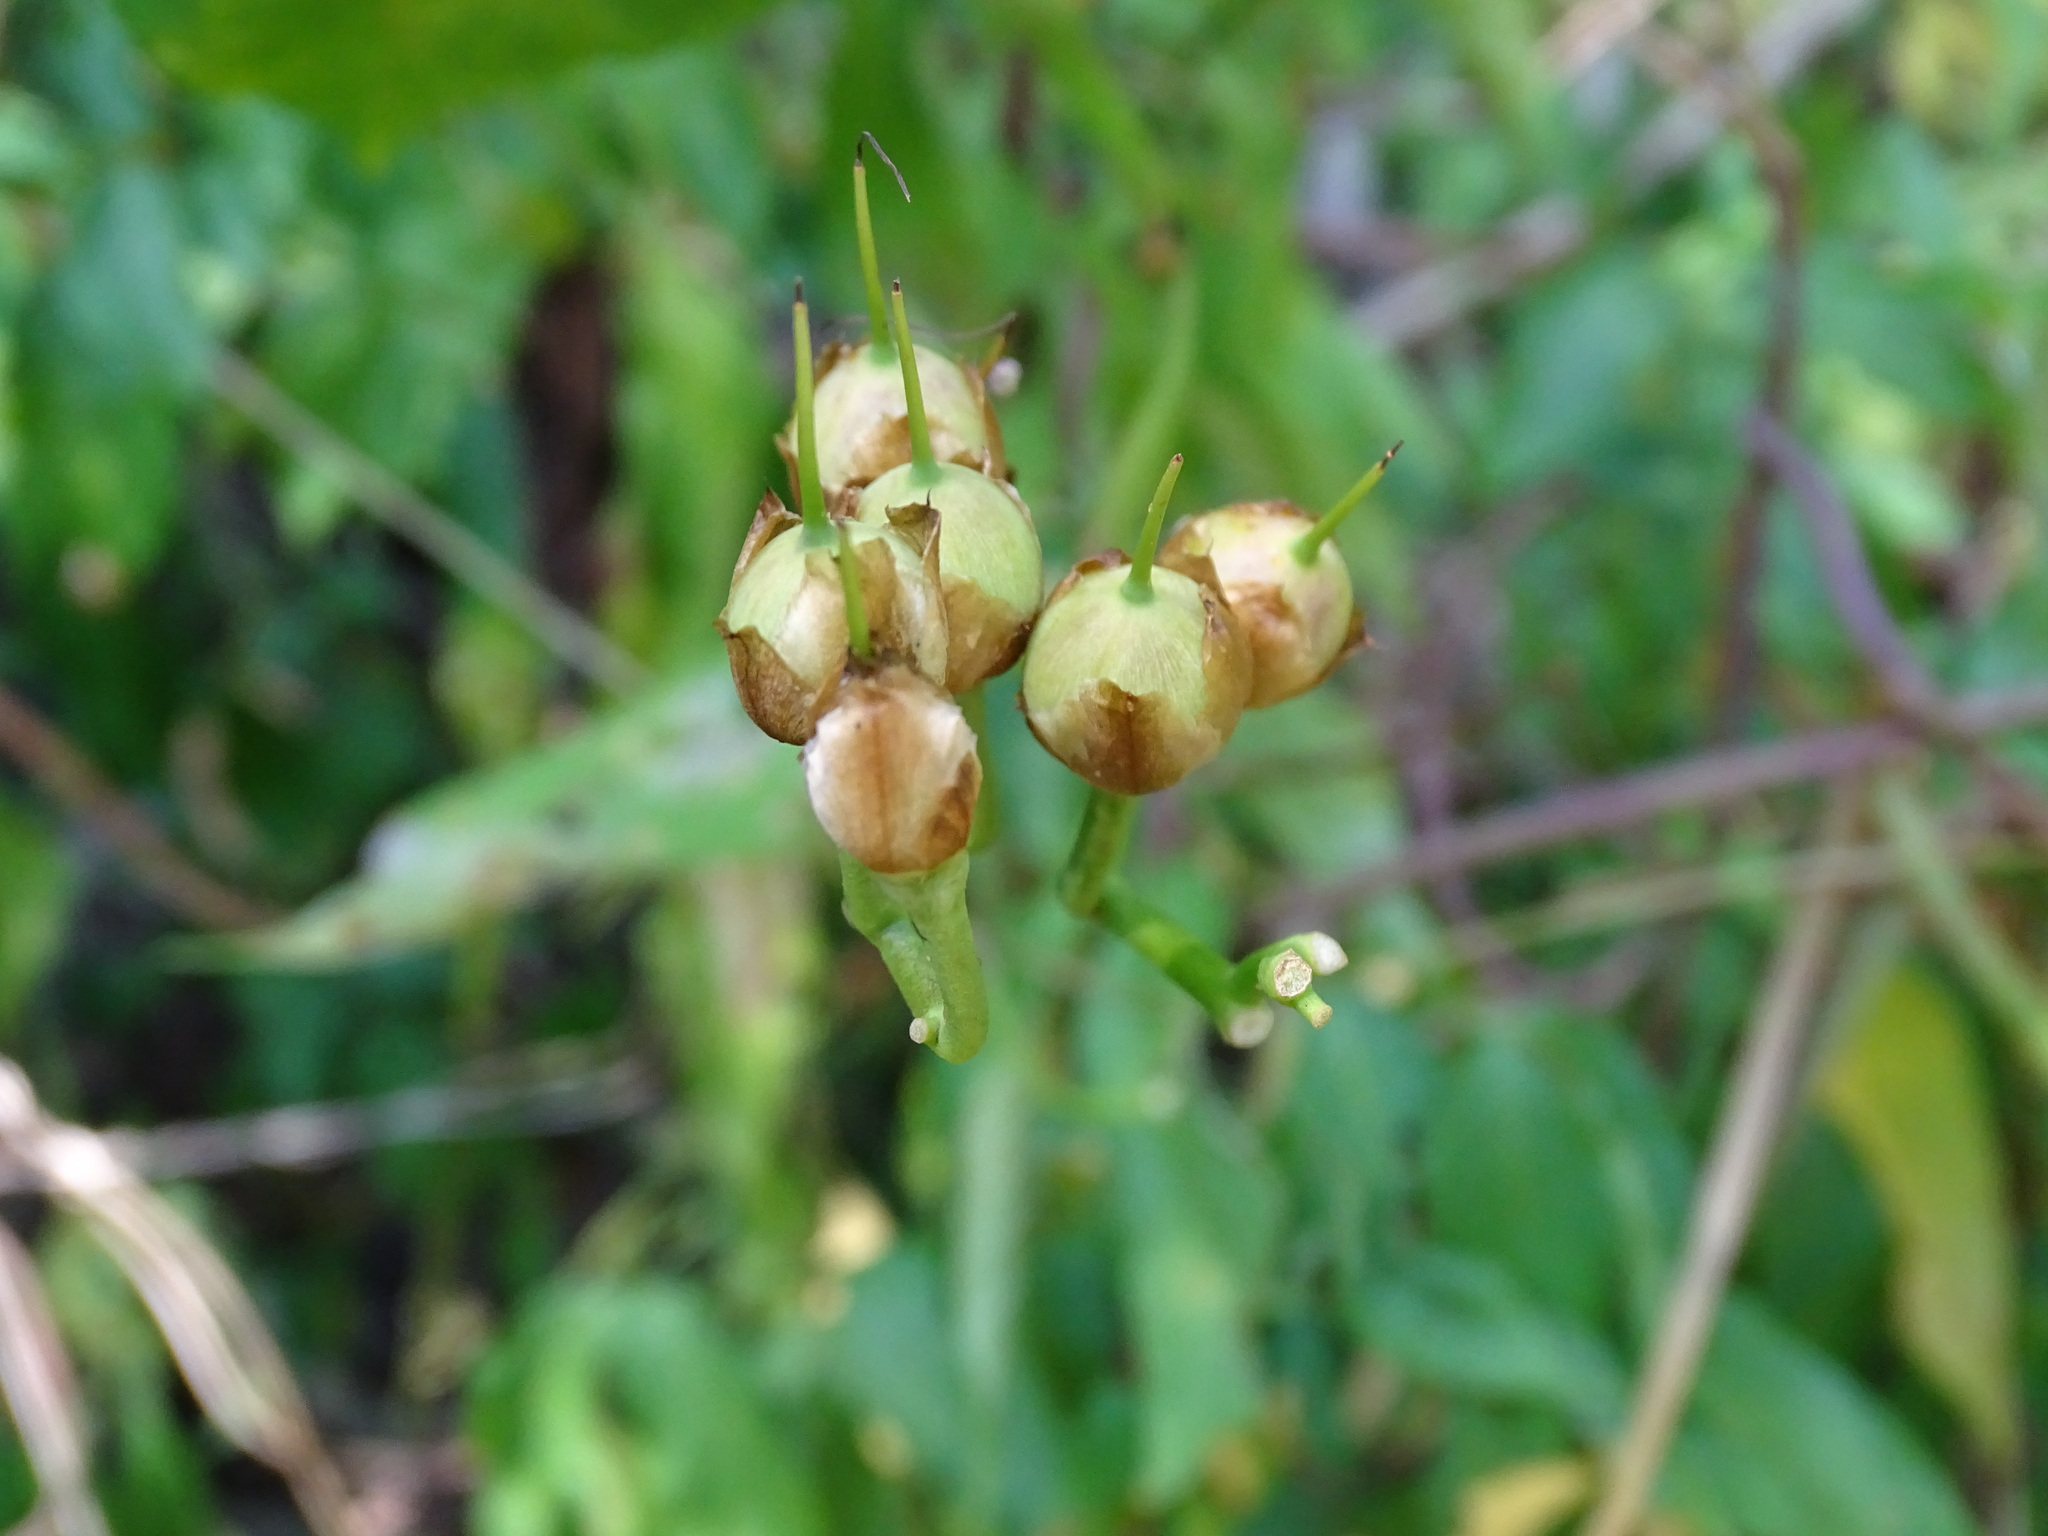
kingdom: Plantae
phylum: Tracheophyta
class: Magnoliopsida
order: Solanales
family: Convolvulaceae
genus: Ipomoea
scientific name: Ipomoea splendor-sylvae
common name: Morning glory
